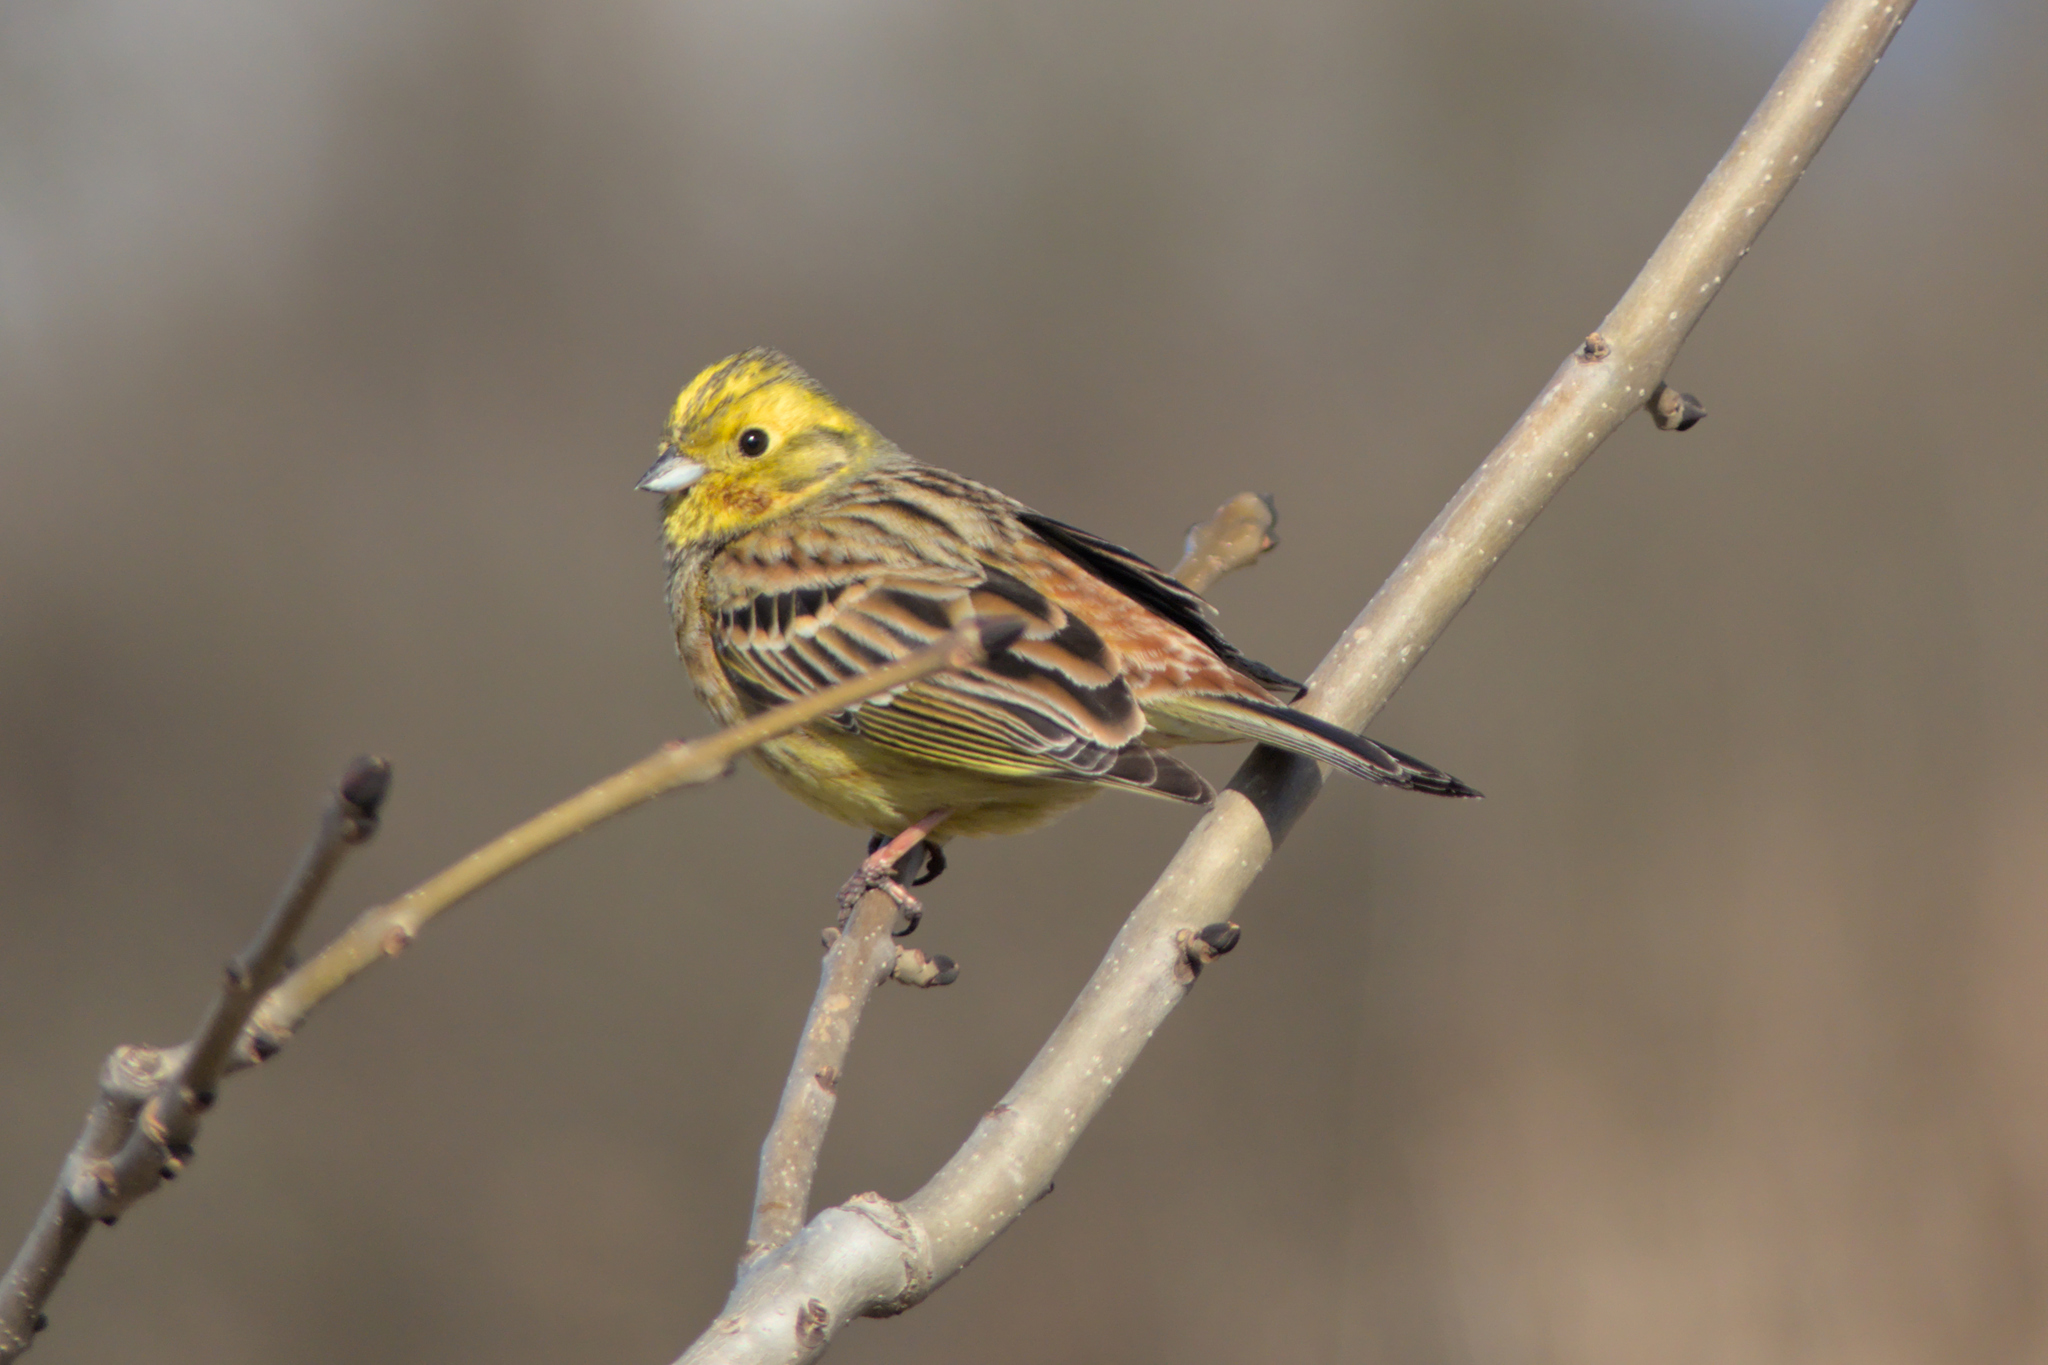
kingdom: Animalia
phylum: Chordata
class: Aves
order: Passeriformes
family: Emberizidae
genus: Emberiza
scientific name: Emberiza citrinella
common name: Yellowhammer
